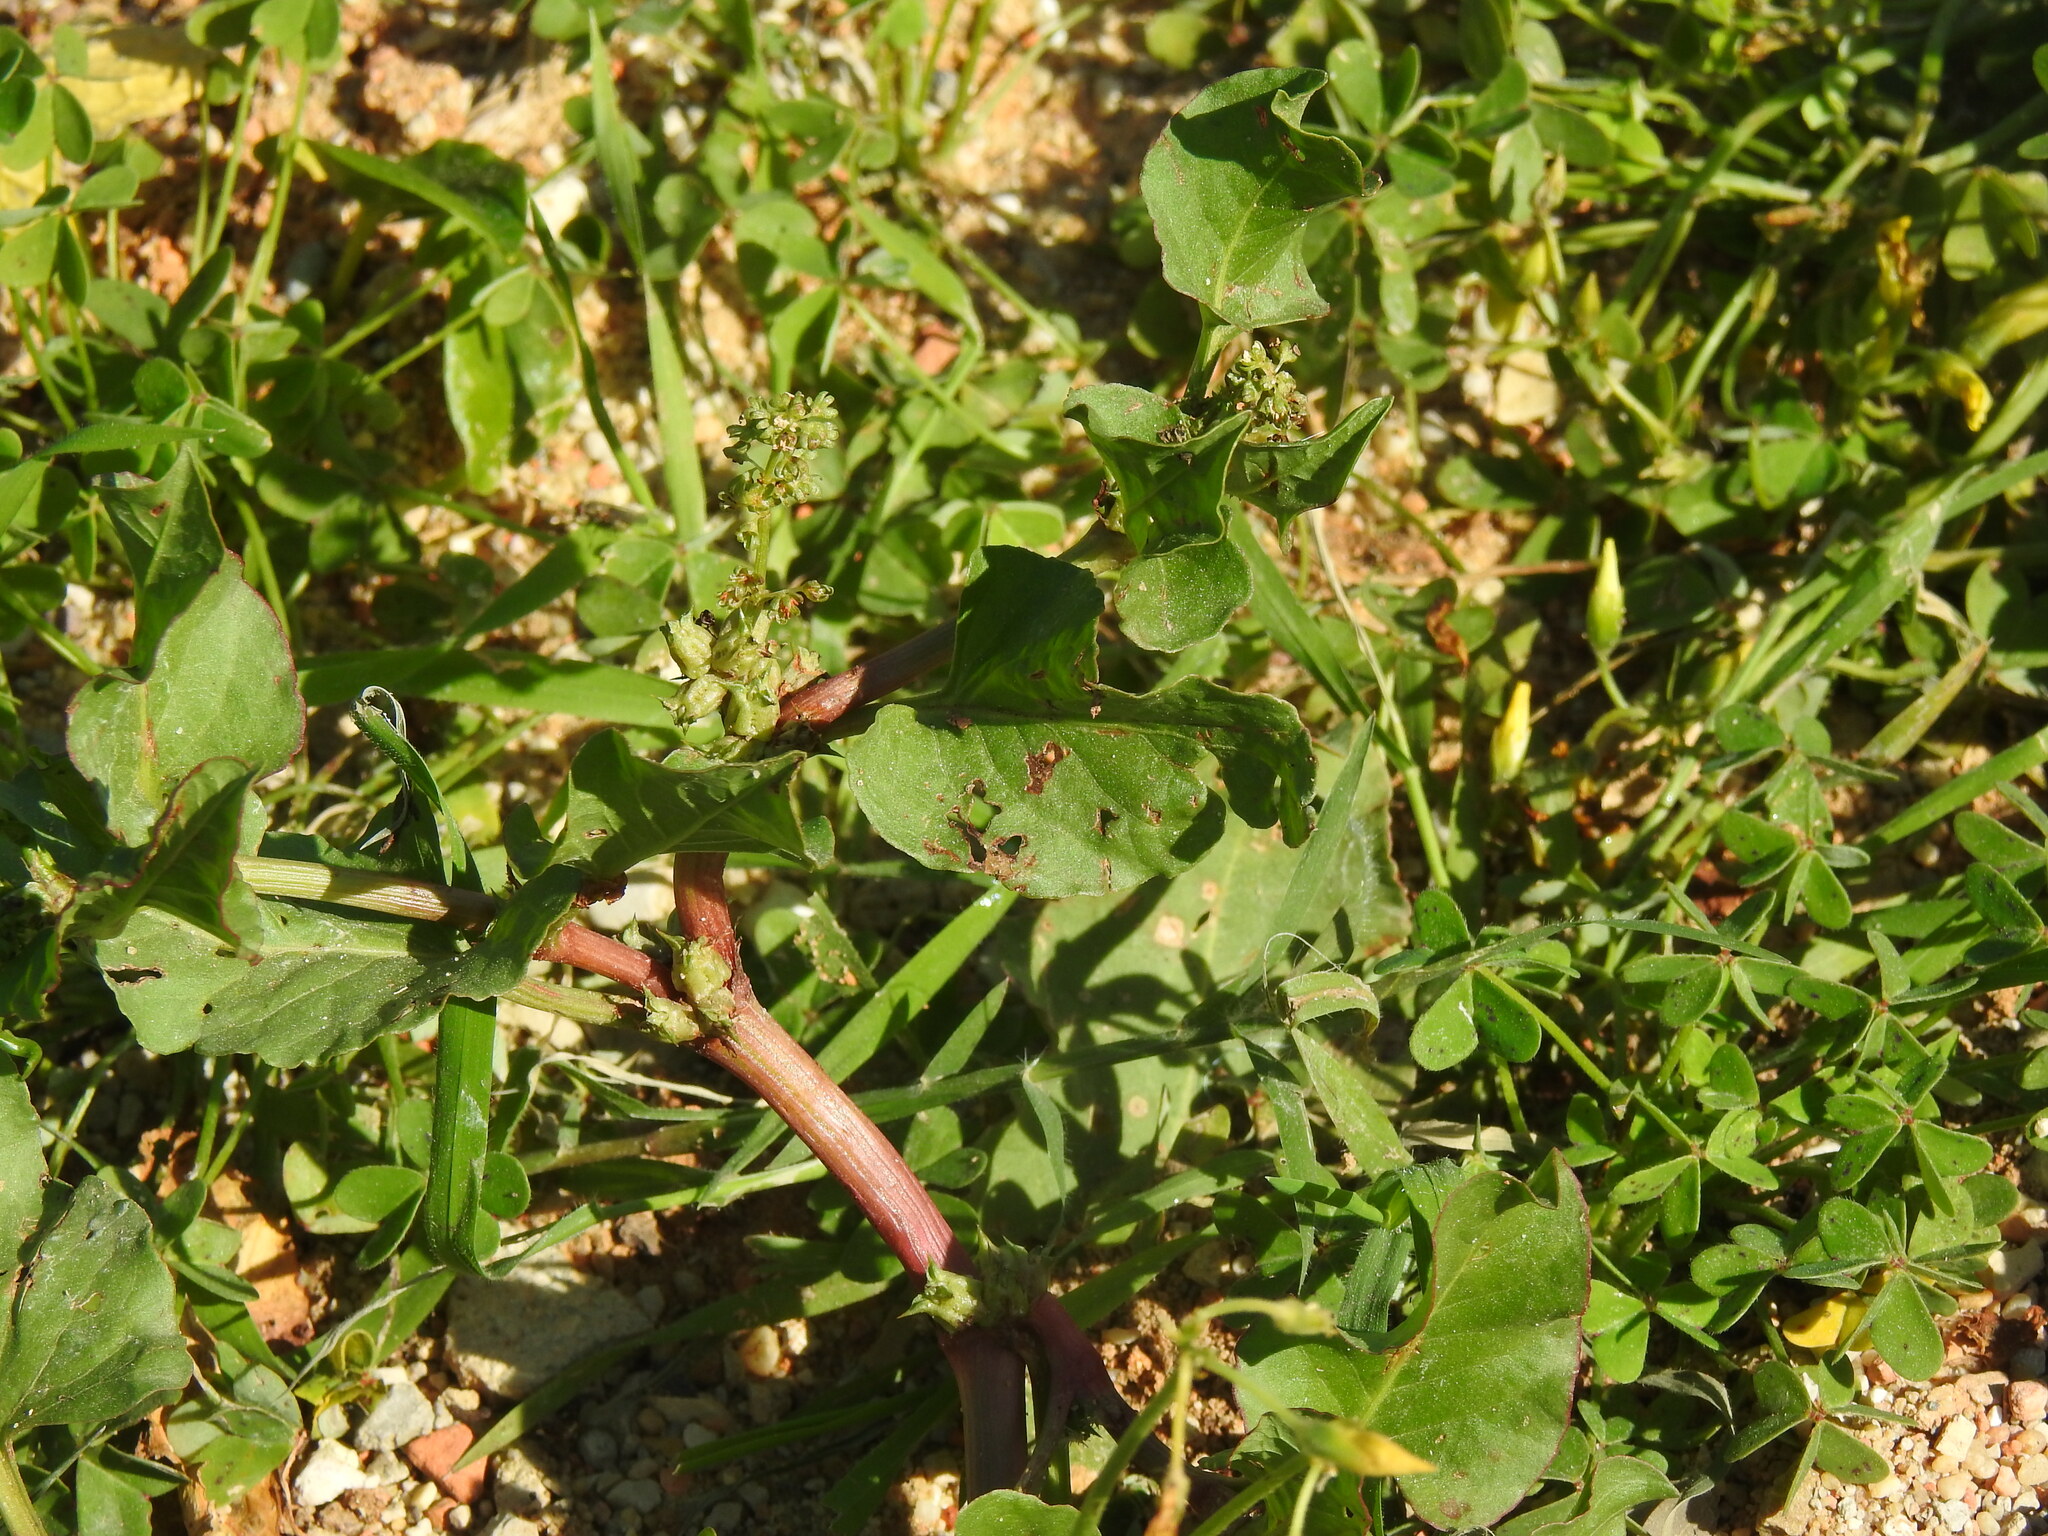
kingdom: Plantae
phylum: Tracheophyta
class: Magnoliopsida
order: Caryophyllales
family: Polygonaceae
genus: Rumex
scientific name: Rumex spinosus
